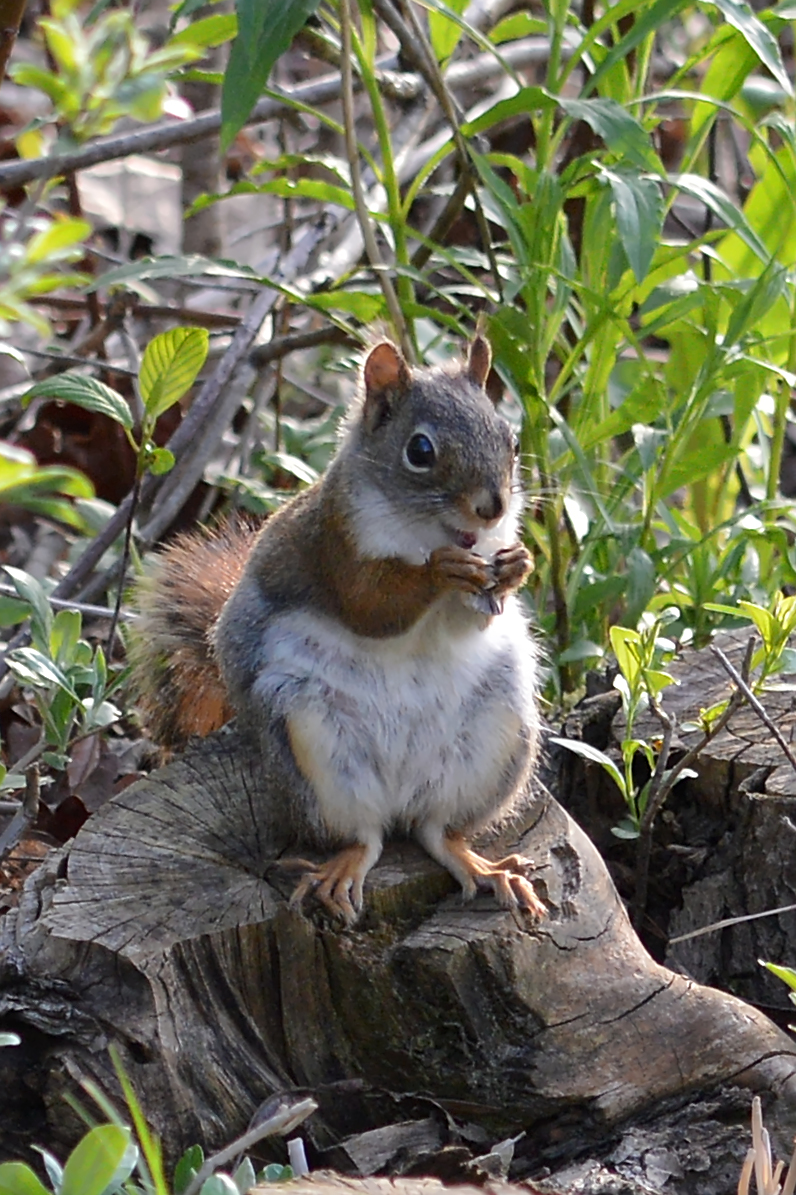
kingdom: Animalia
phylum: Chordata
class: Mammalia
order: Rodentia
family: Sciuridae
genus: Tamiasciurus
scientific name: Tamiasciurus hudsonicus
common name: Red squirrel
